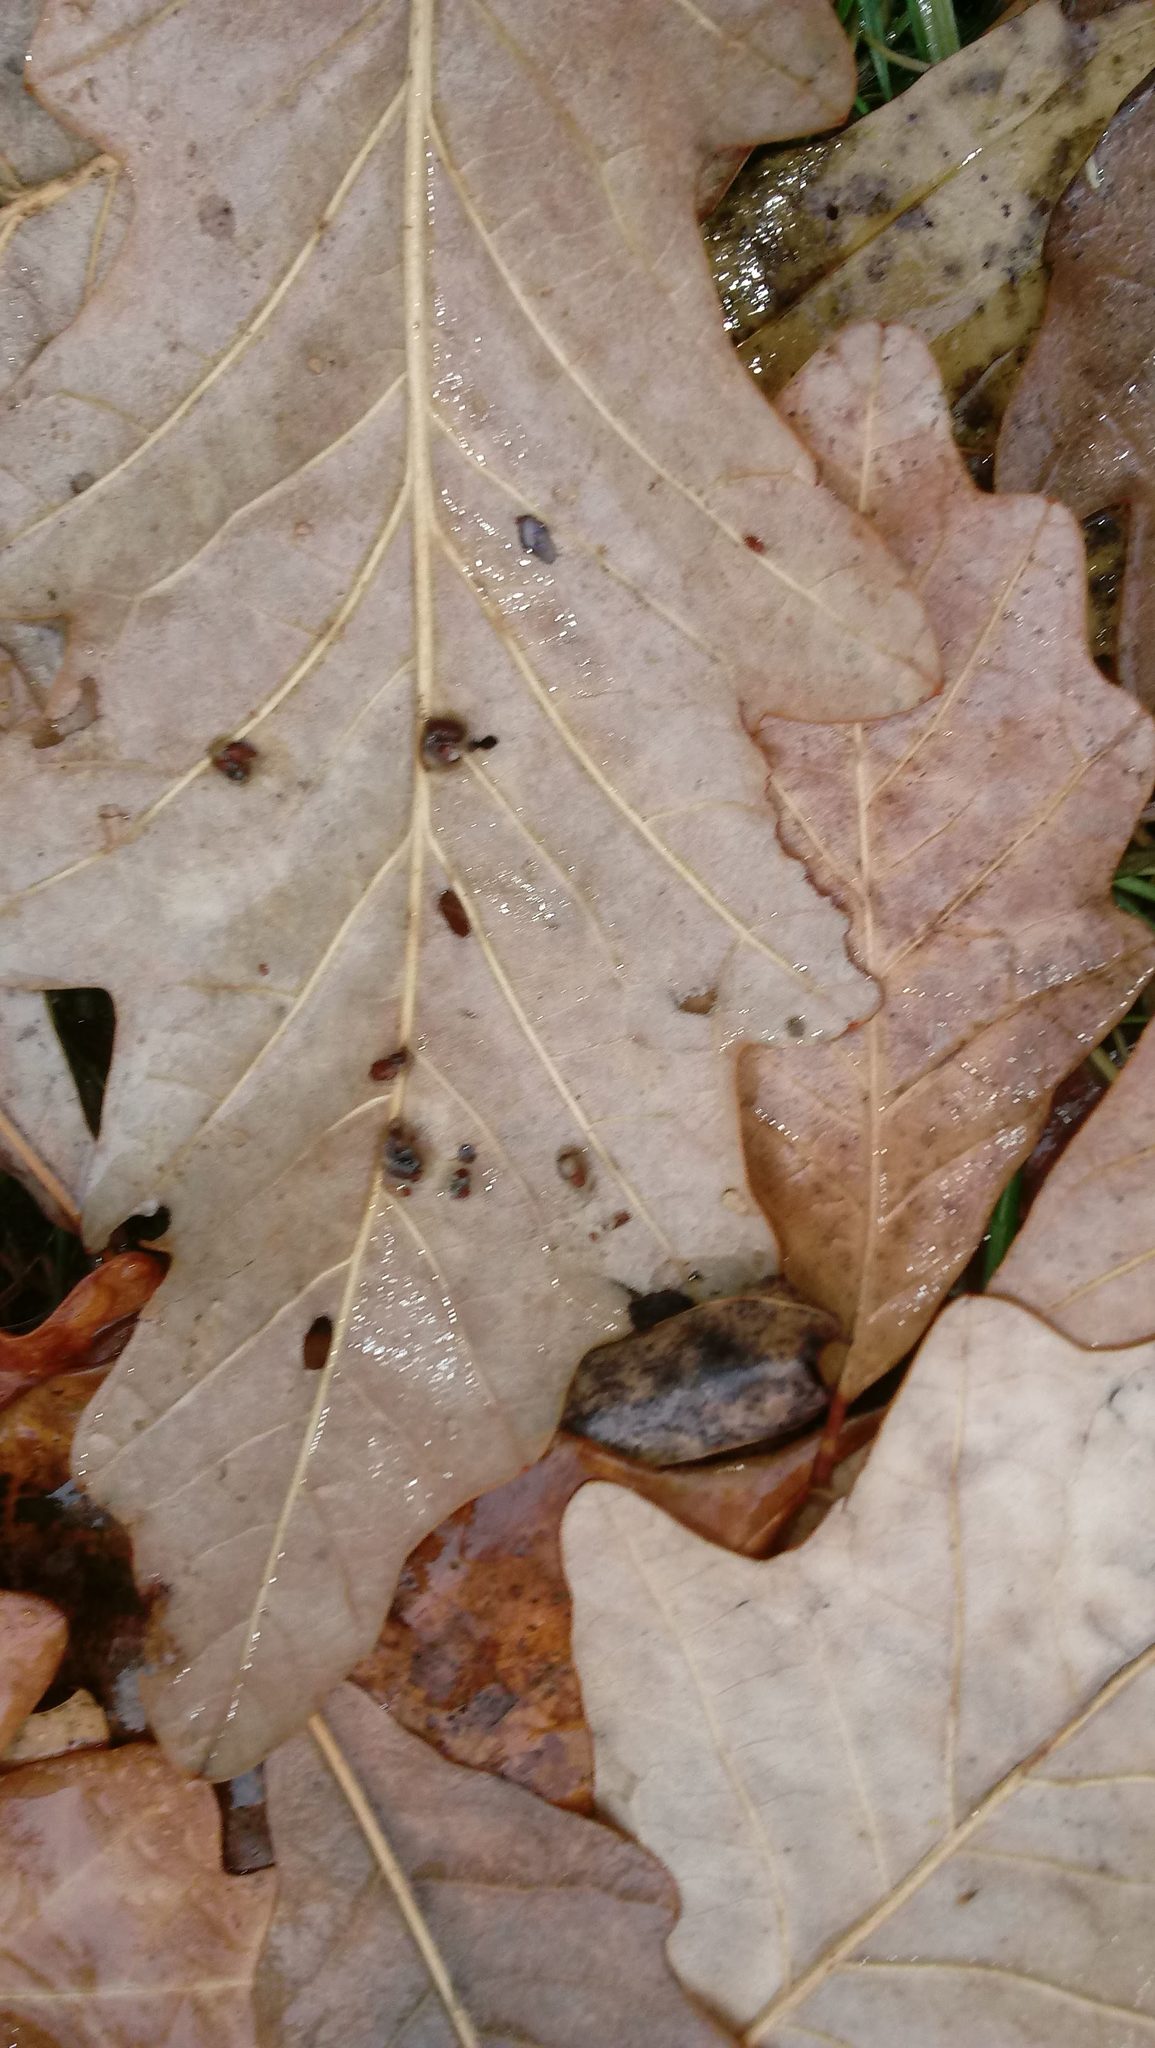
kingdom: Animalia
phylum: Arthropoda
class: Insecta
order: Hymenoptera
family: Cynipidae
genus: Andricus
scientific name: Andricus Druon ignotum
